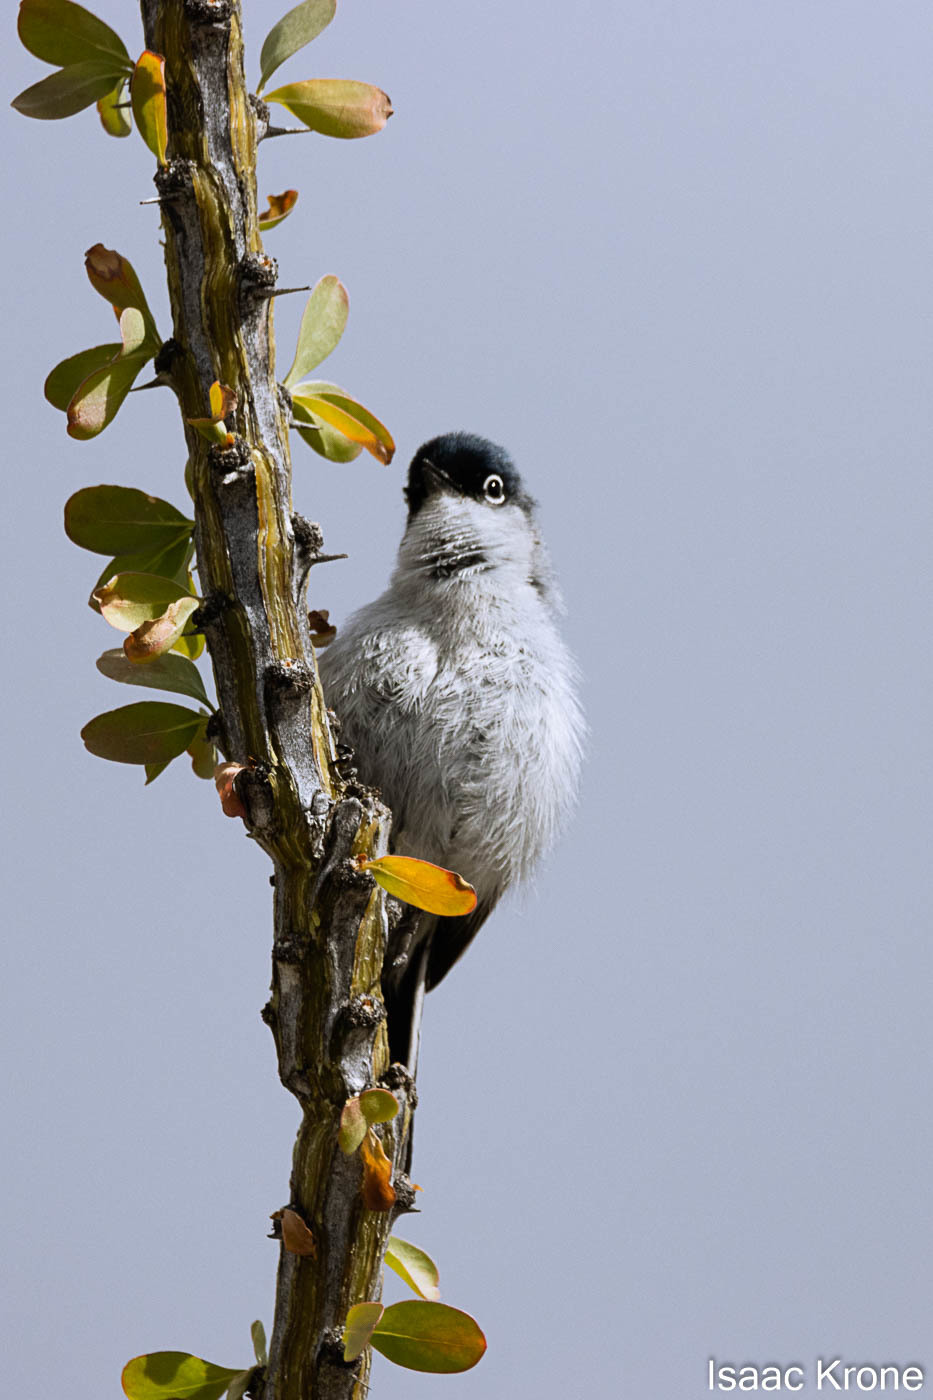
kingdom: Animalia
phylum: Chordata
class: Aves
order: Passeriformes
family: Polioptilidae
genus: Polioptila
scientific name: Polioptila melanura
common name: Black-tailed gnatcatcher
